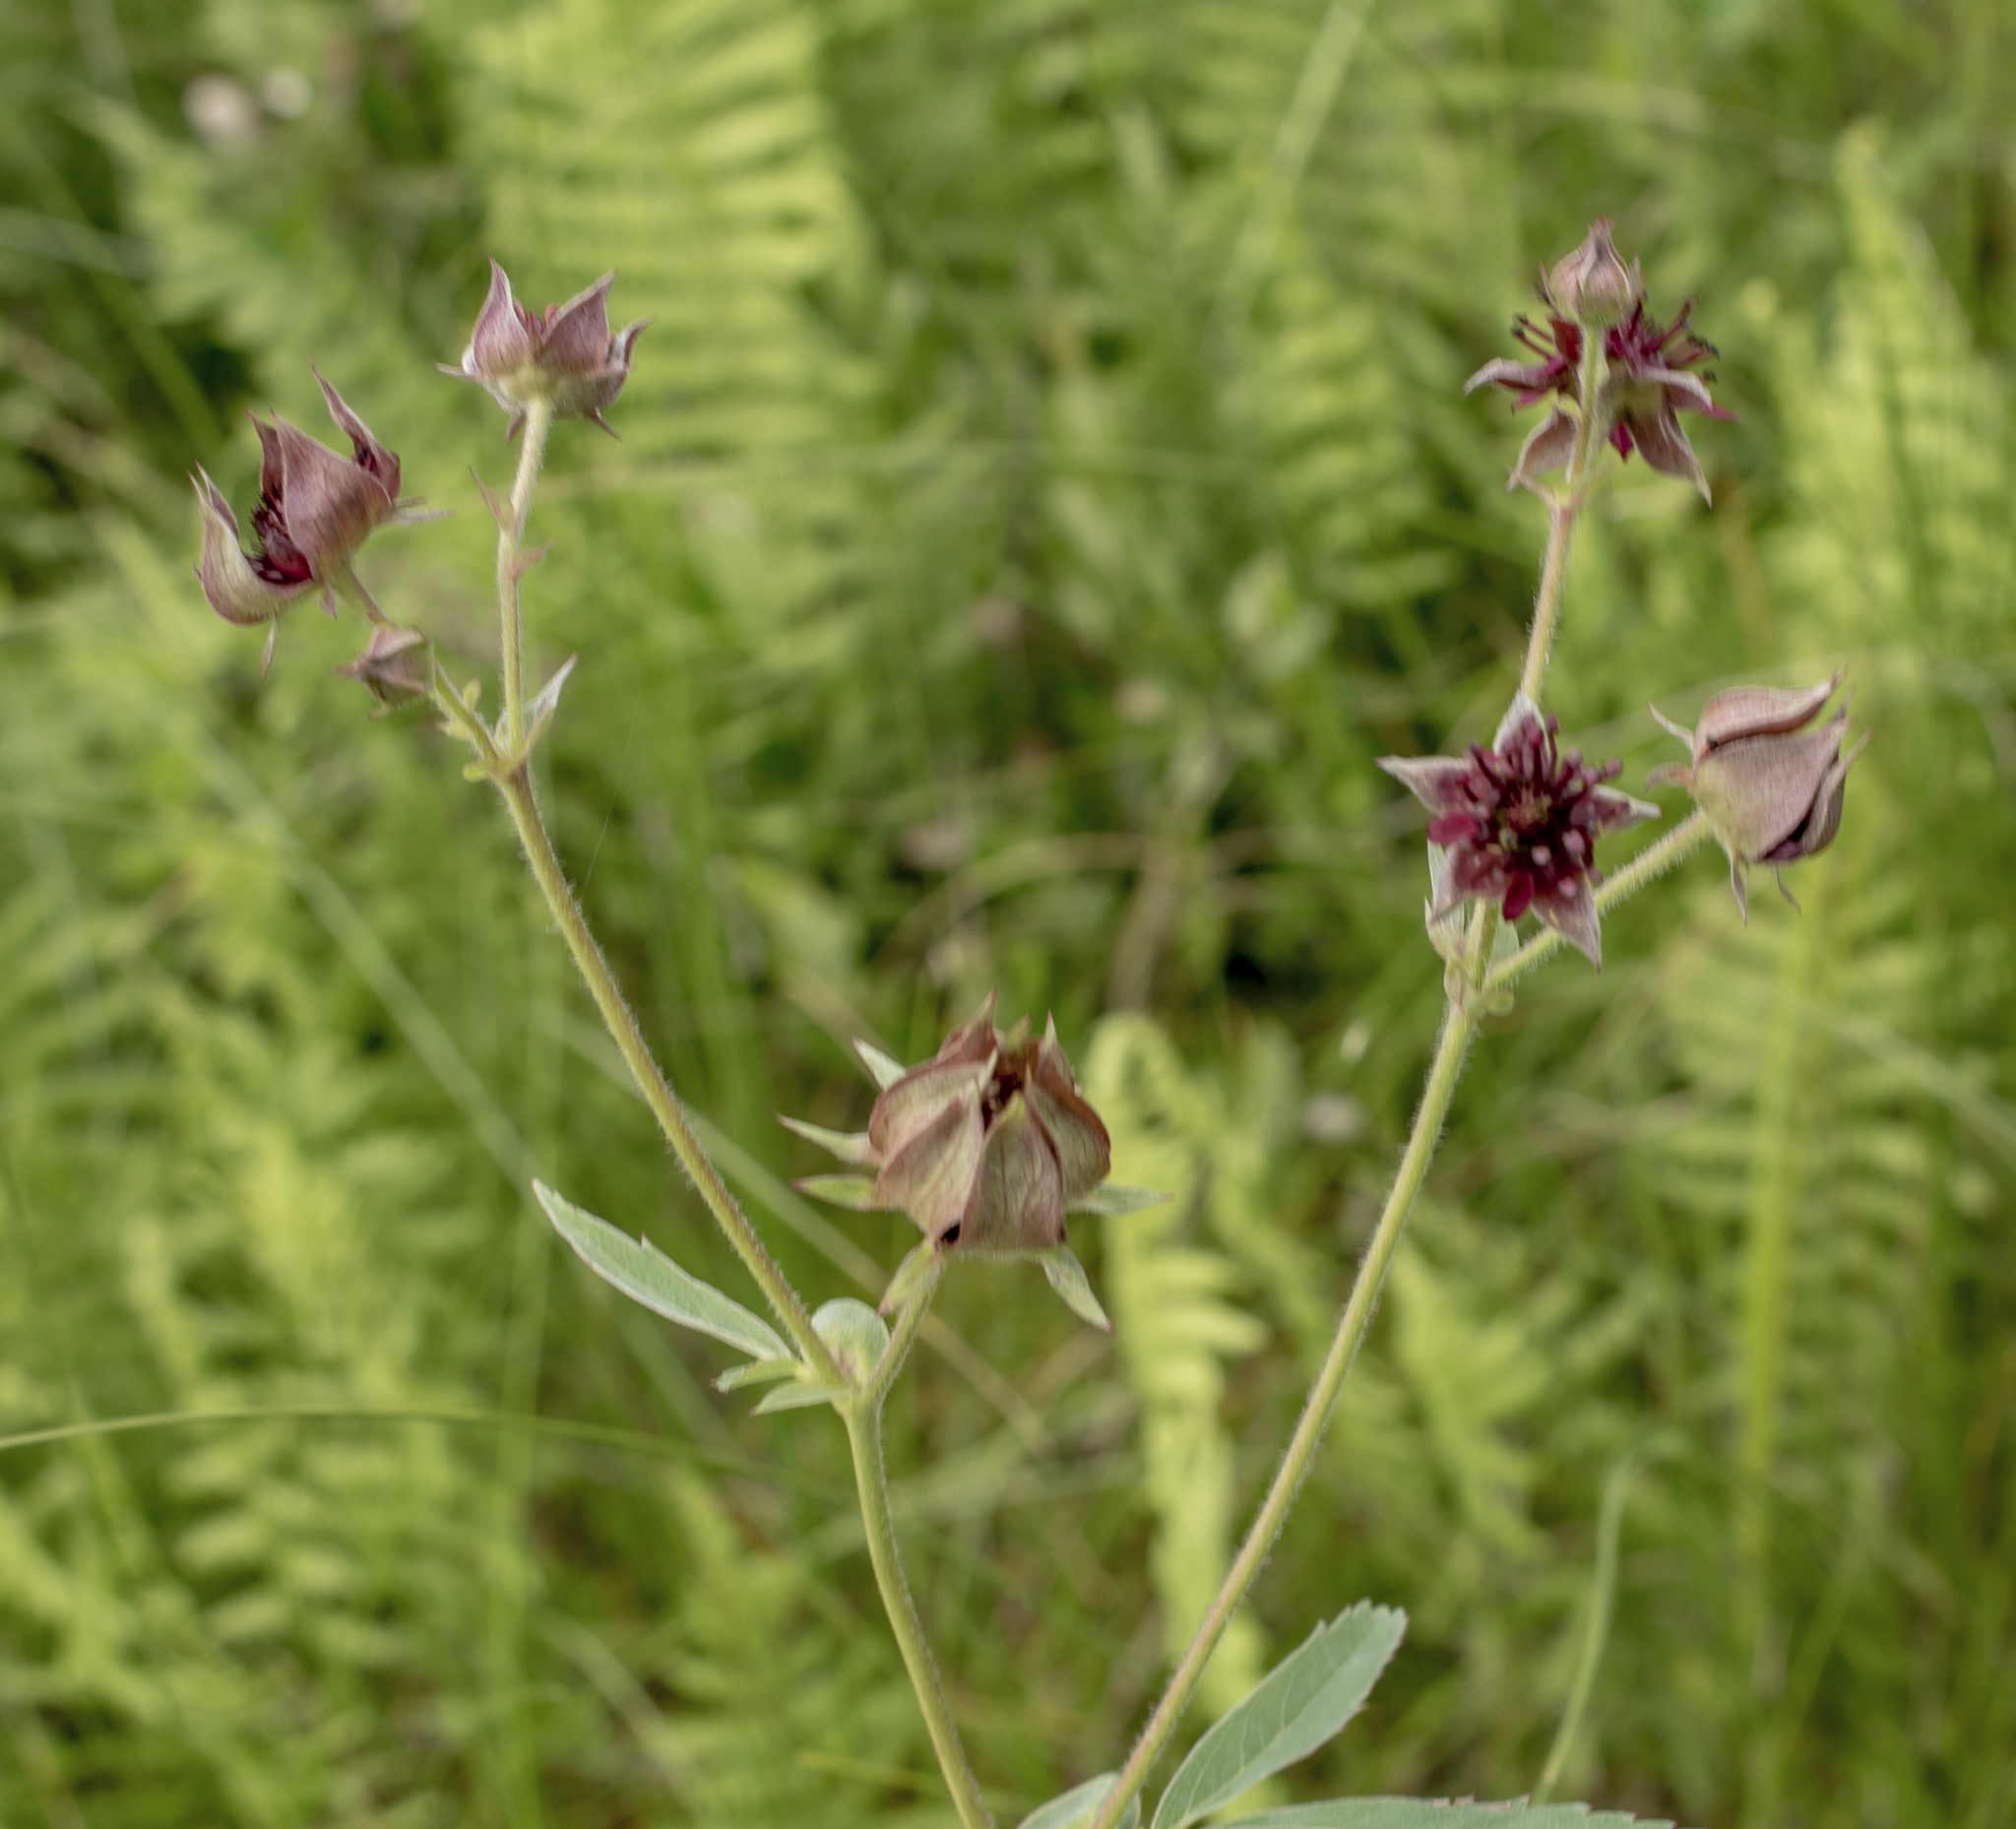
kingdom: Plantae
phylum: Tracheophyta
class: Magnoliopsida
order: Rosales
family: Rosaceae
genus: Comarum
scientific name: Comarum palustre
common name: Marsh cinquefoil
